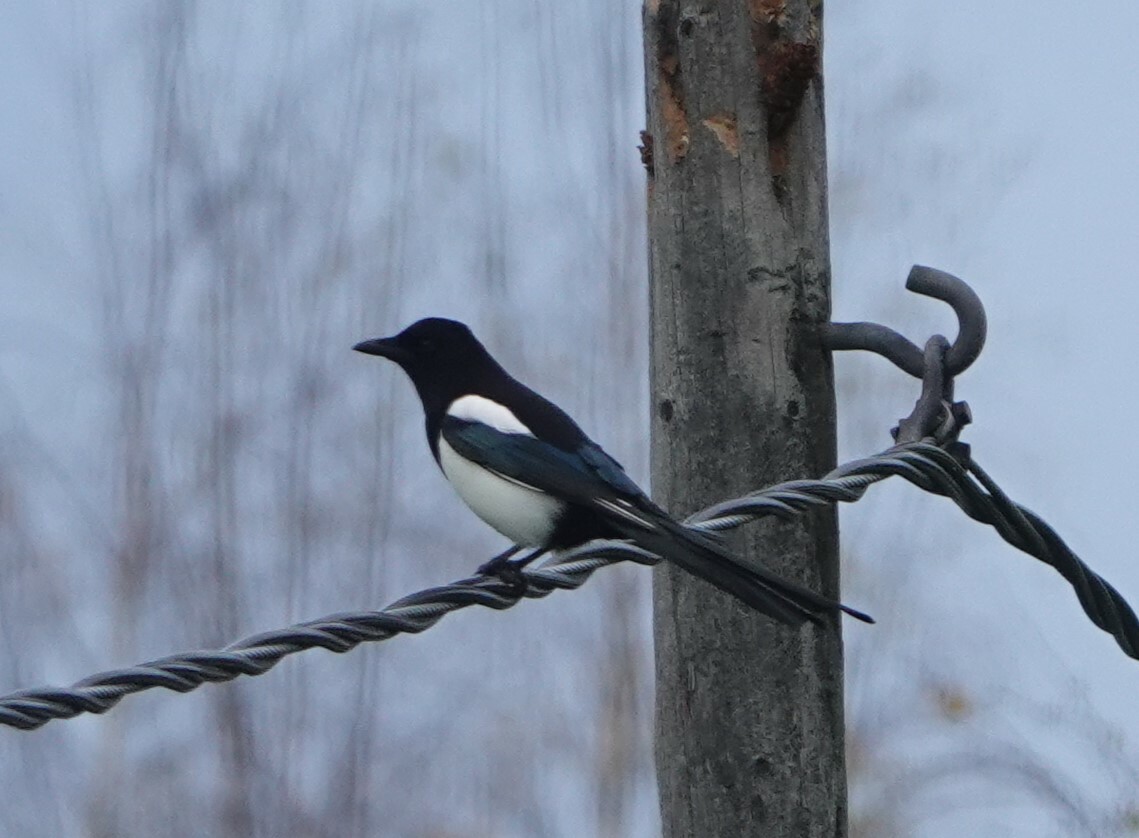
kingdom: Animalia
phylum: Chordata
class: Aves
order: Passeriformes
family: Corvidae
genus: Pica
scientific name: Pica pica
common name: Eurasian magpie
